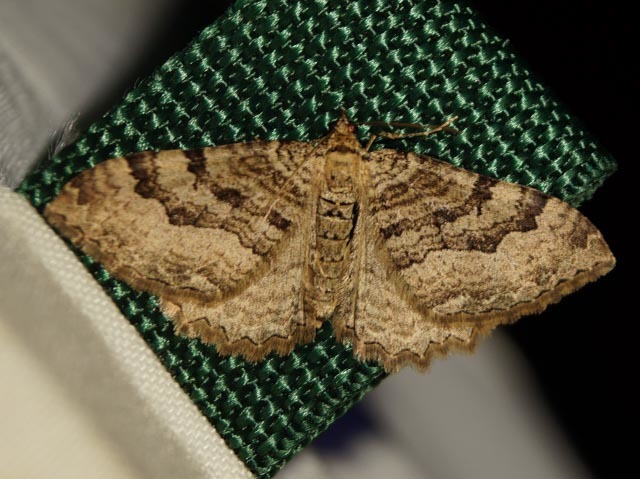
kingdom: Animalia
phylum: Arthropoda
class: Insecta
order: Lepidoptera
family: Geometridae
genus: Rheumaptera
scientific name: Rheumaptera Hydria cervinalis
